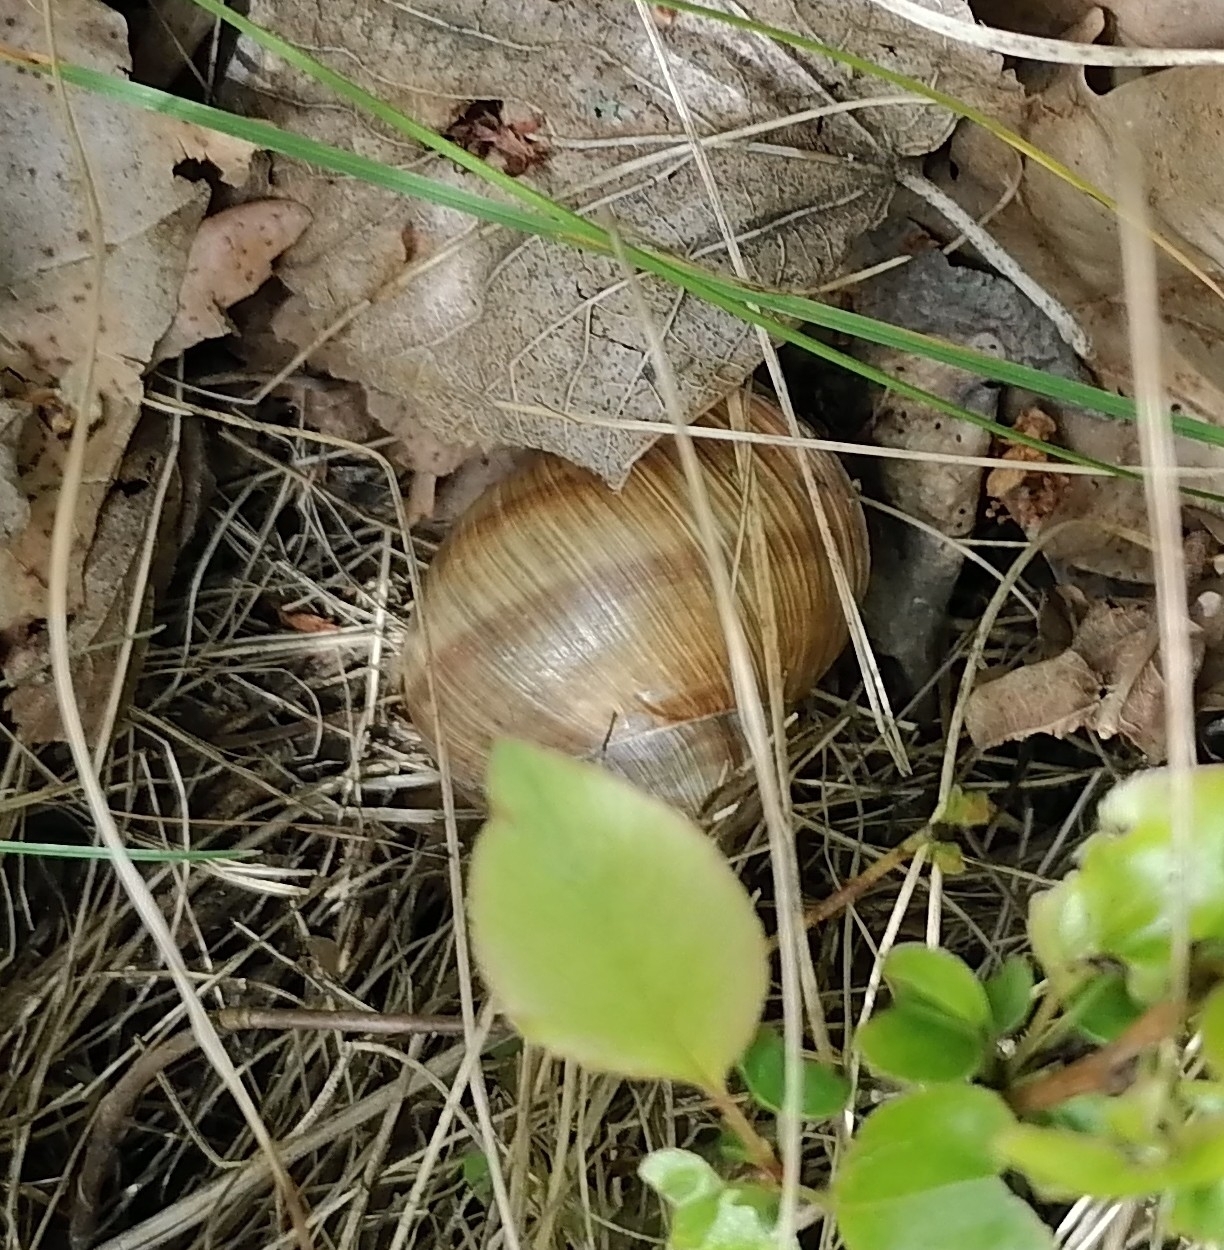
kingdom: Animalia
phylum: Mollusca
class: Gastropoda
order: Stylommatophora
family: Helicidae
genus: Helix
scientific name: Helix pomatia
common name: Roman snail
